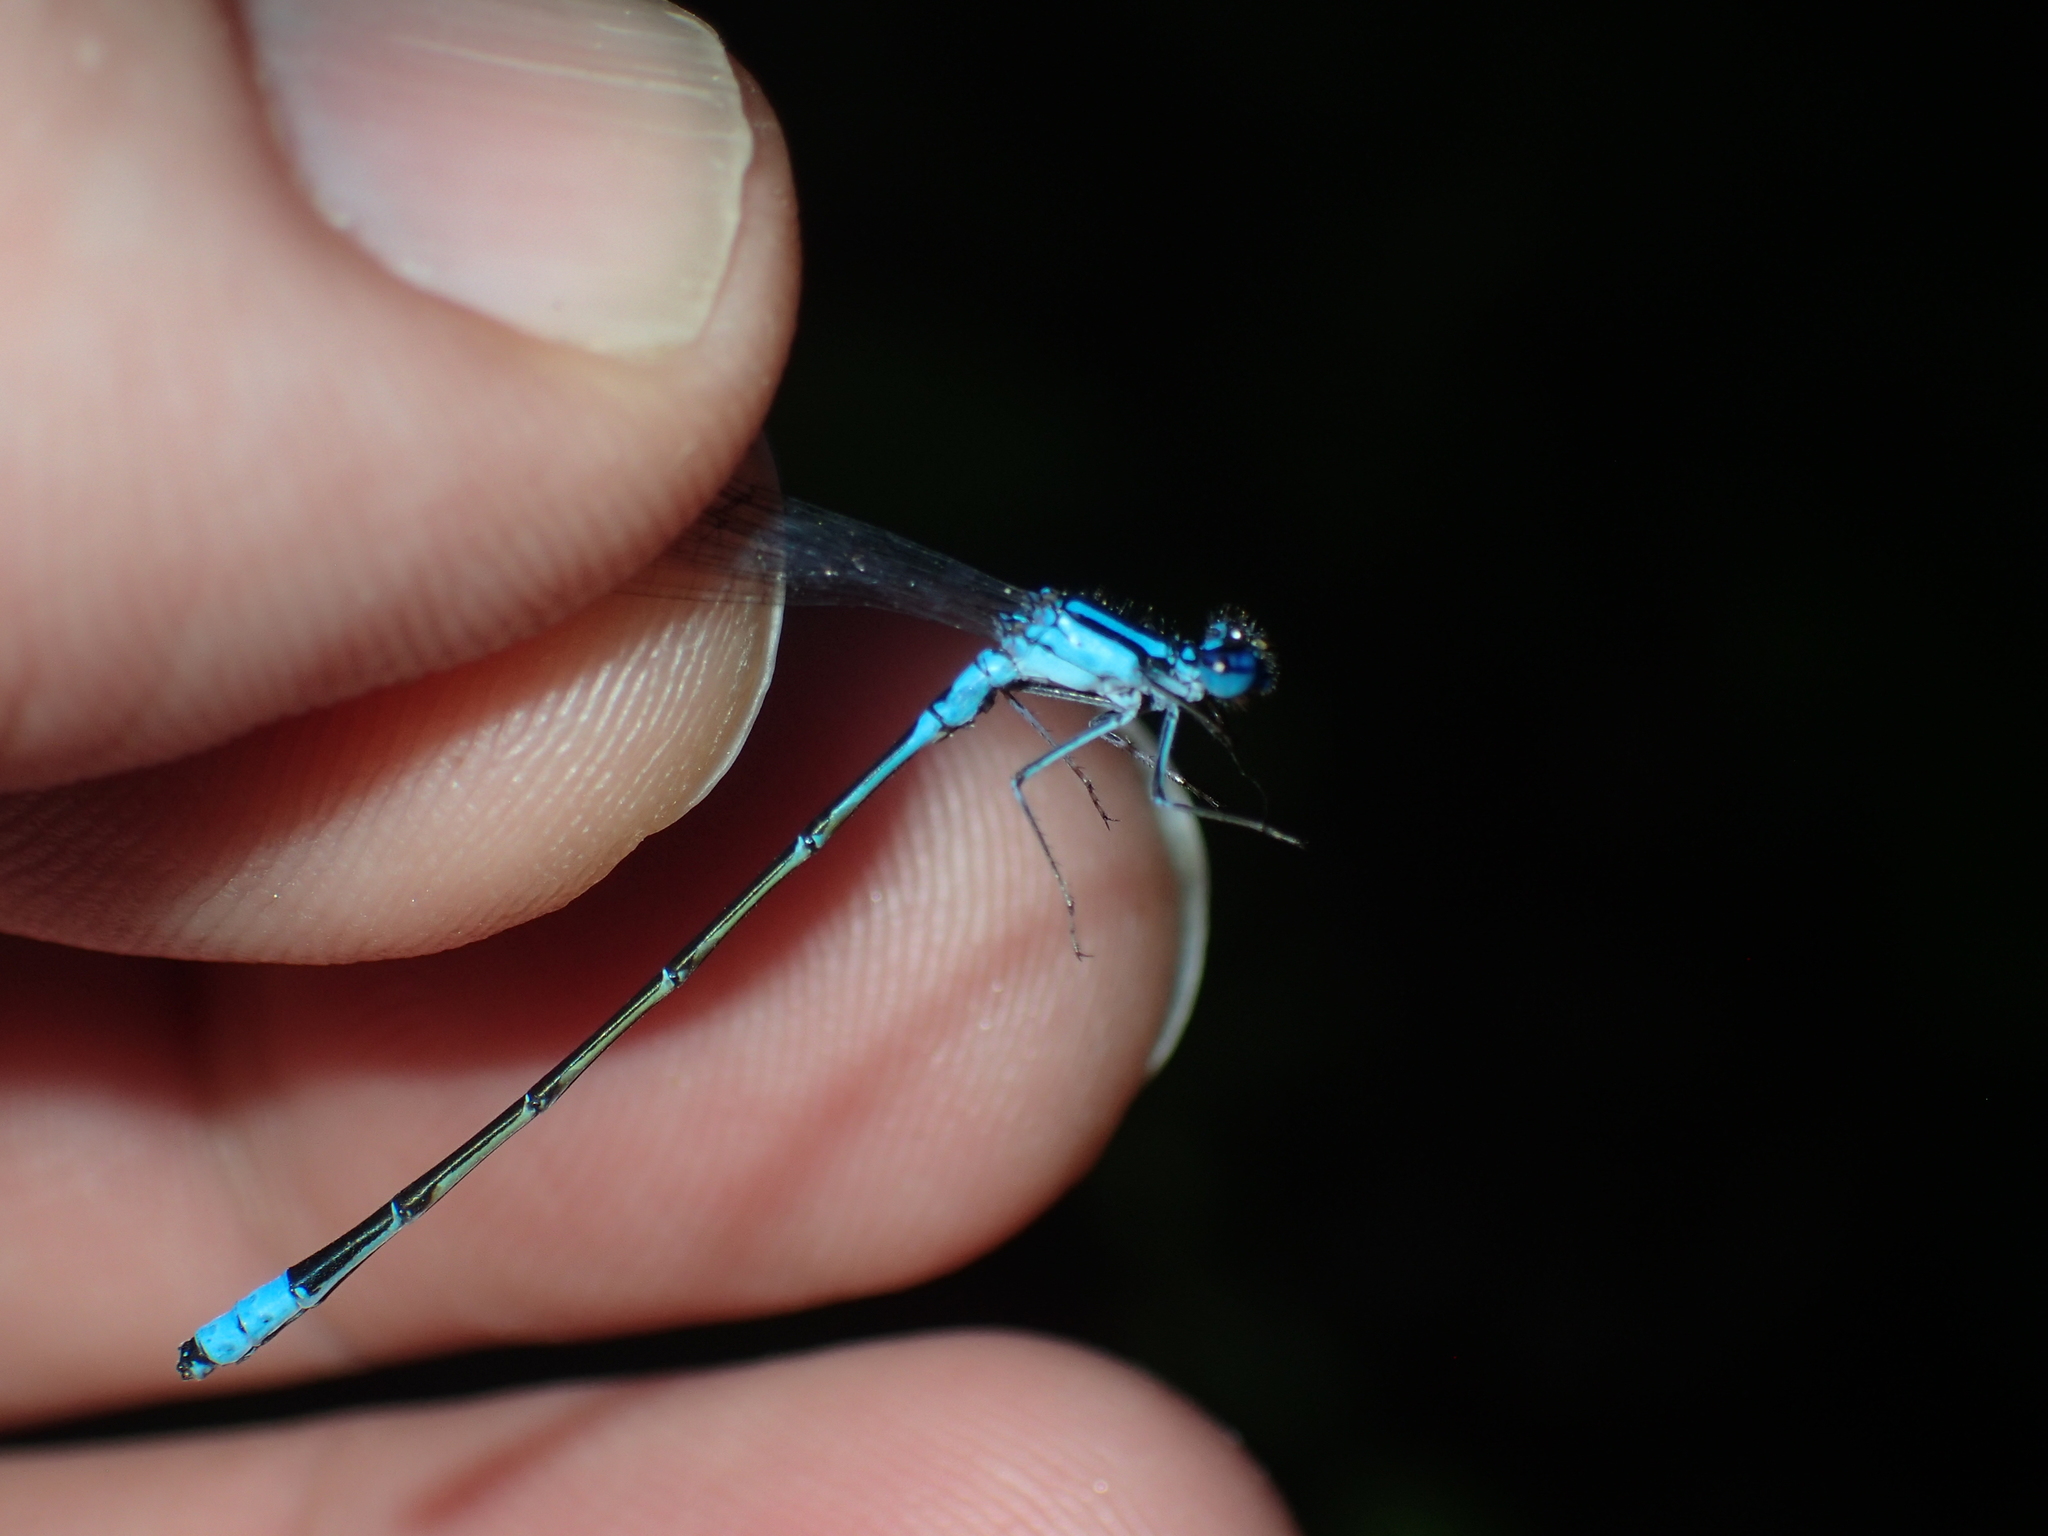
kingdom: Animalia
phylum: Arthropoda
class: Insecta
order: Odonata
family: Coenagrionidae
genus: Enallagma
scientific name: Enallagma divagans
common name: Turquoise bluet
